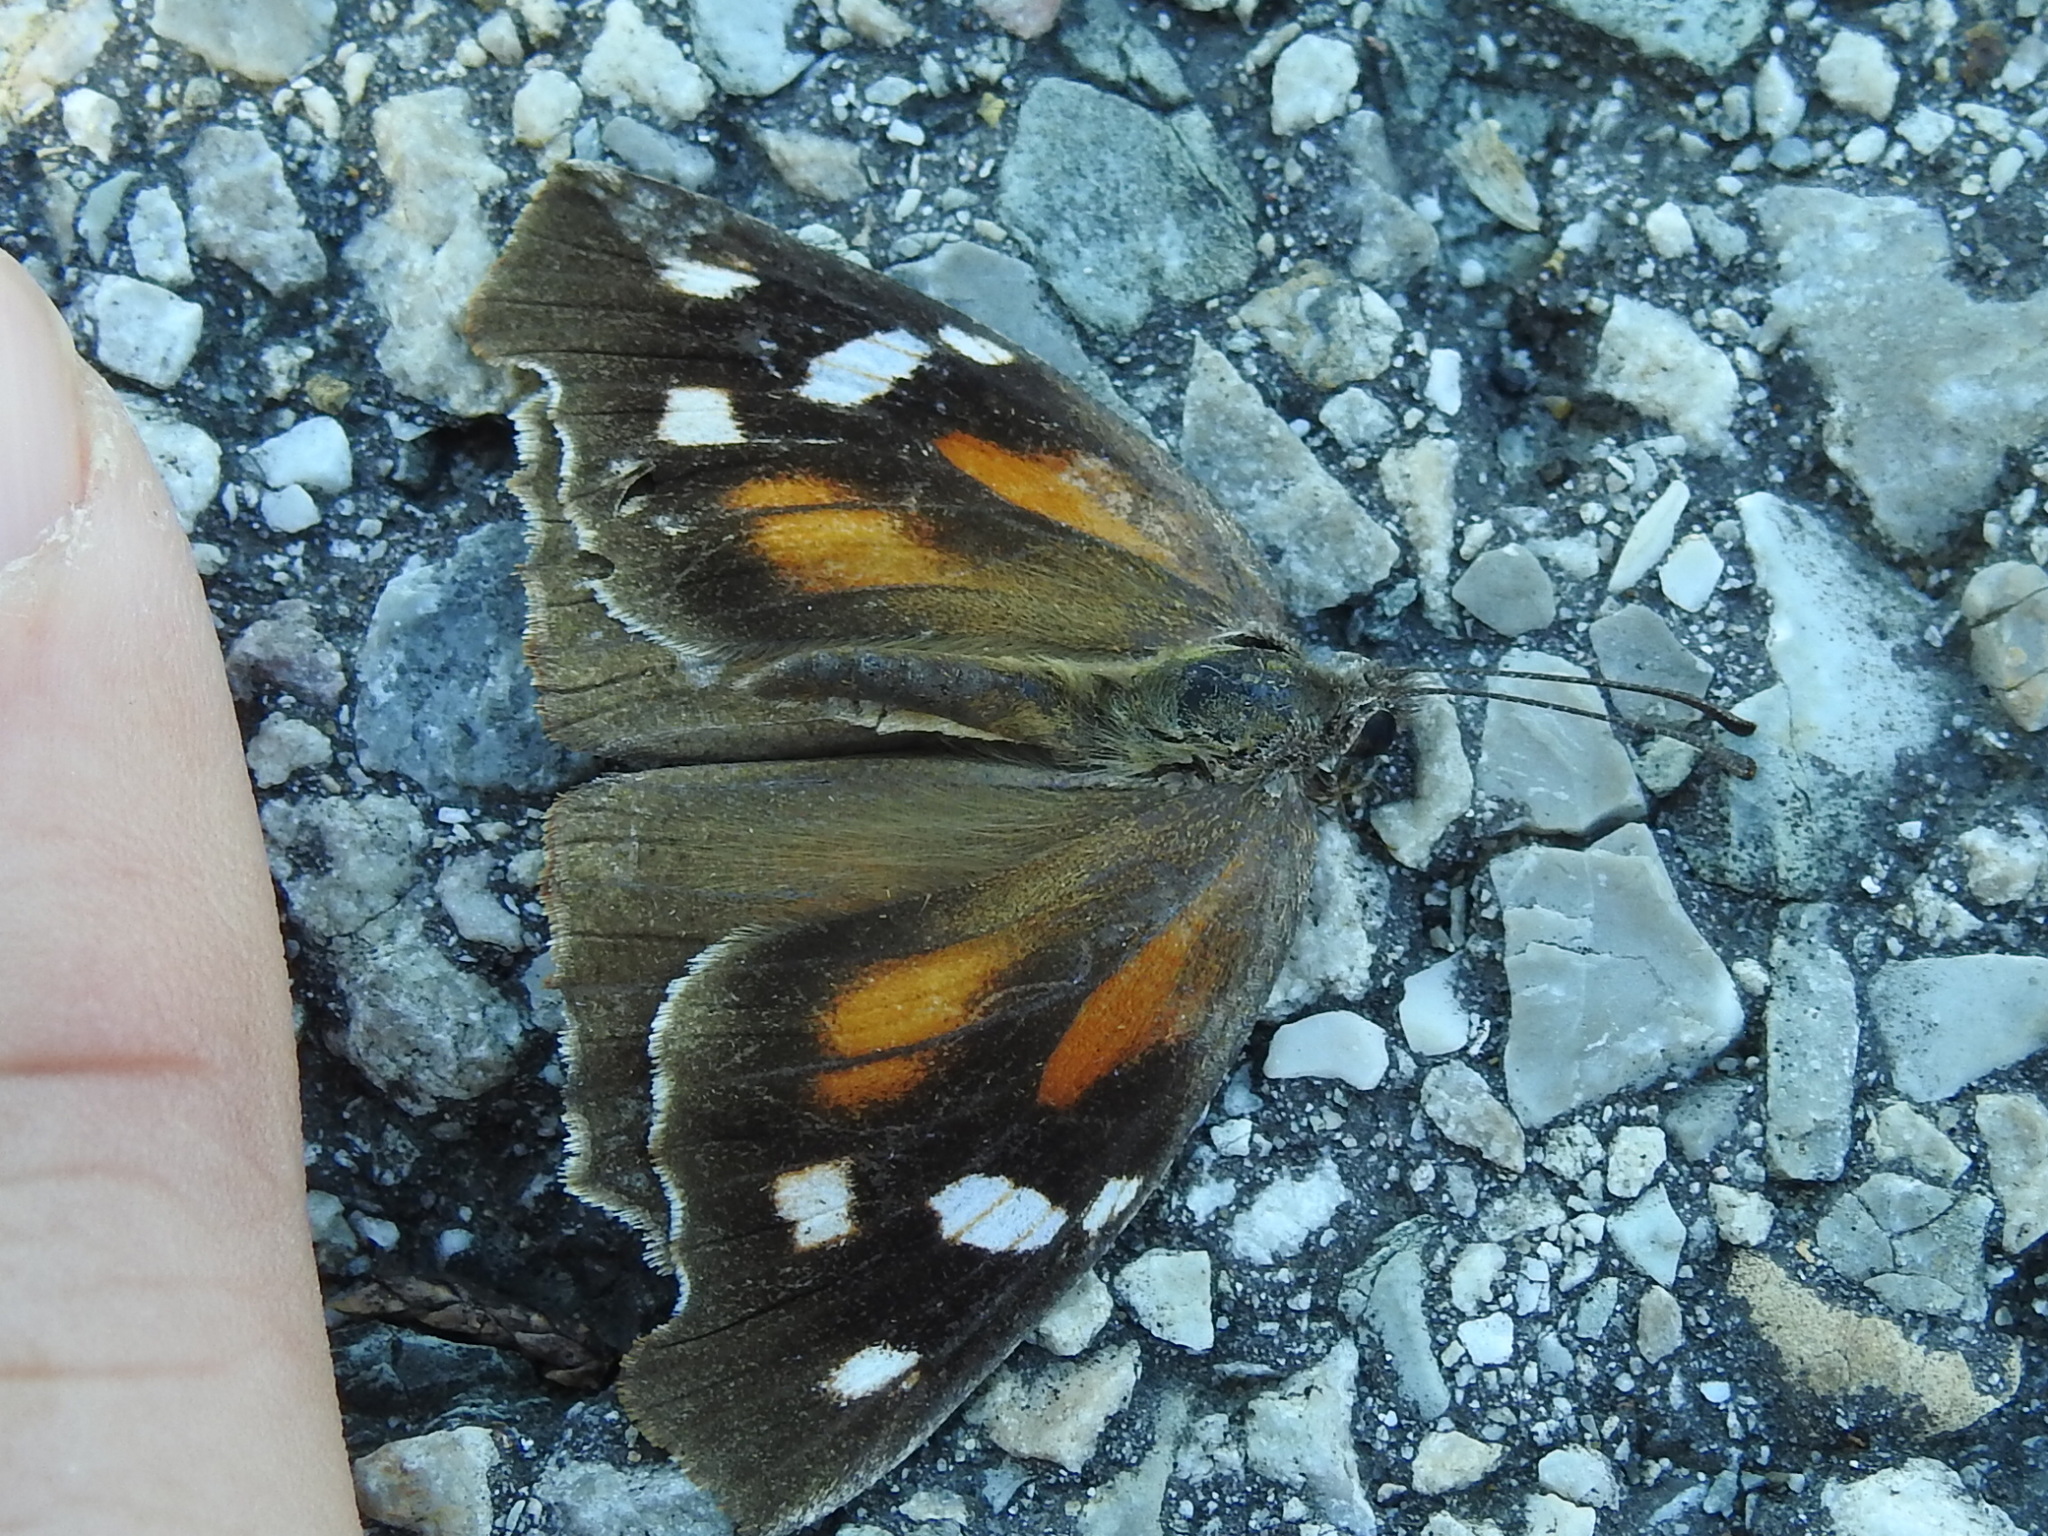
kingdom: Animalia
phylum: Arthropoda
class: Insecta
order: Lepidoptera
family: Nymphalidae
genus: Libytheana
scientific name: Libytheana carinenta
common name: American snout
